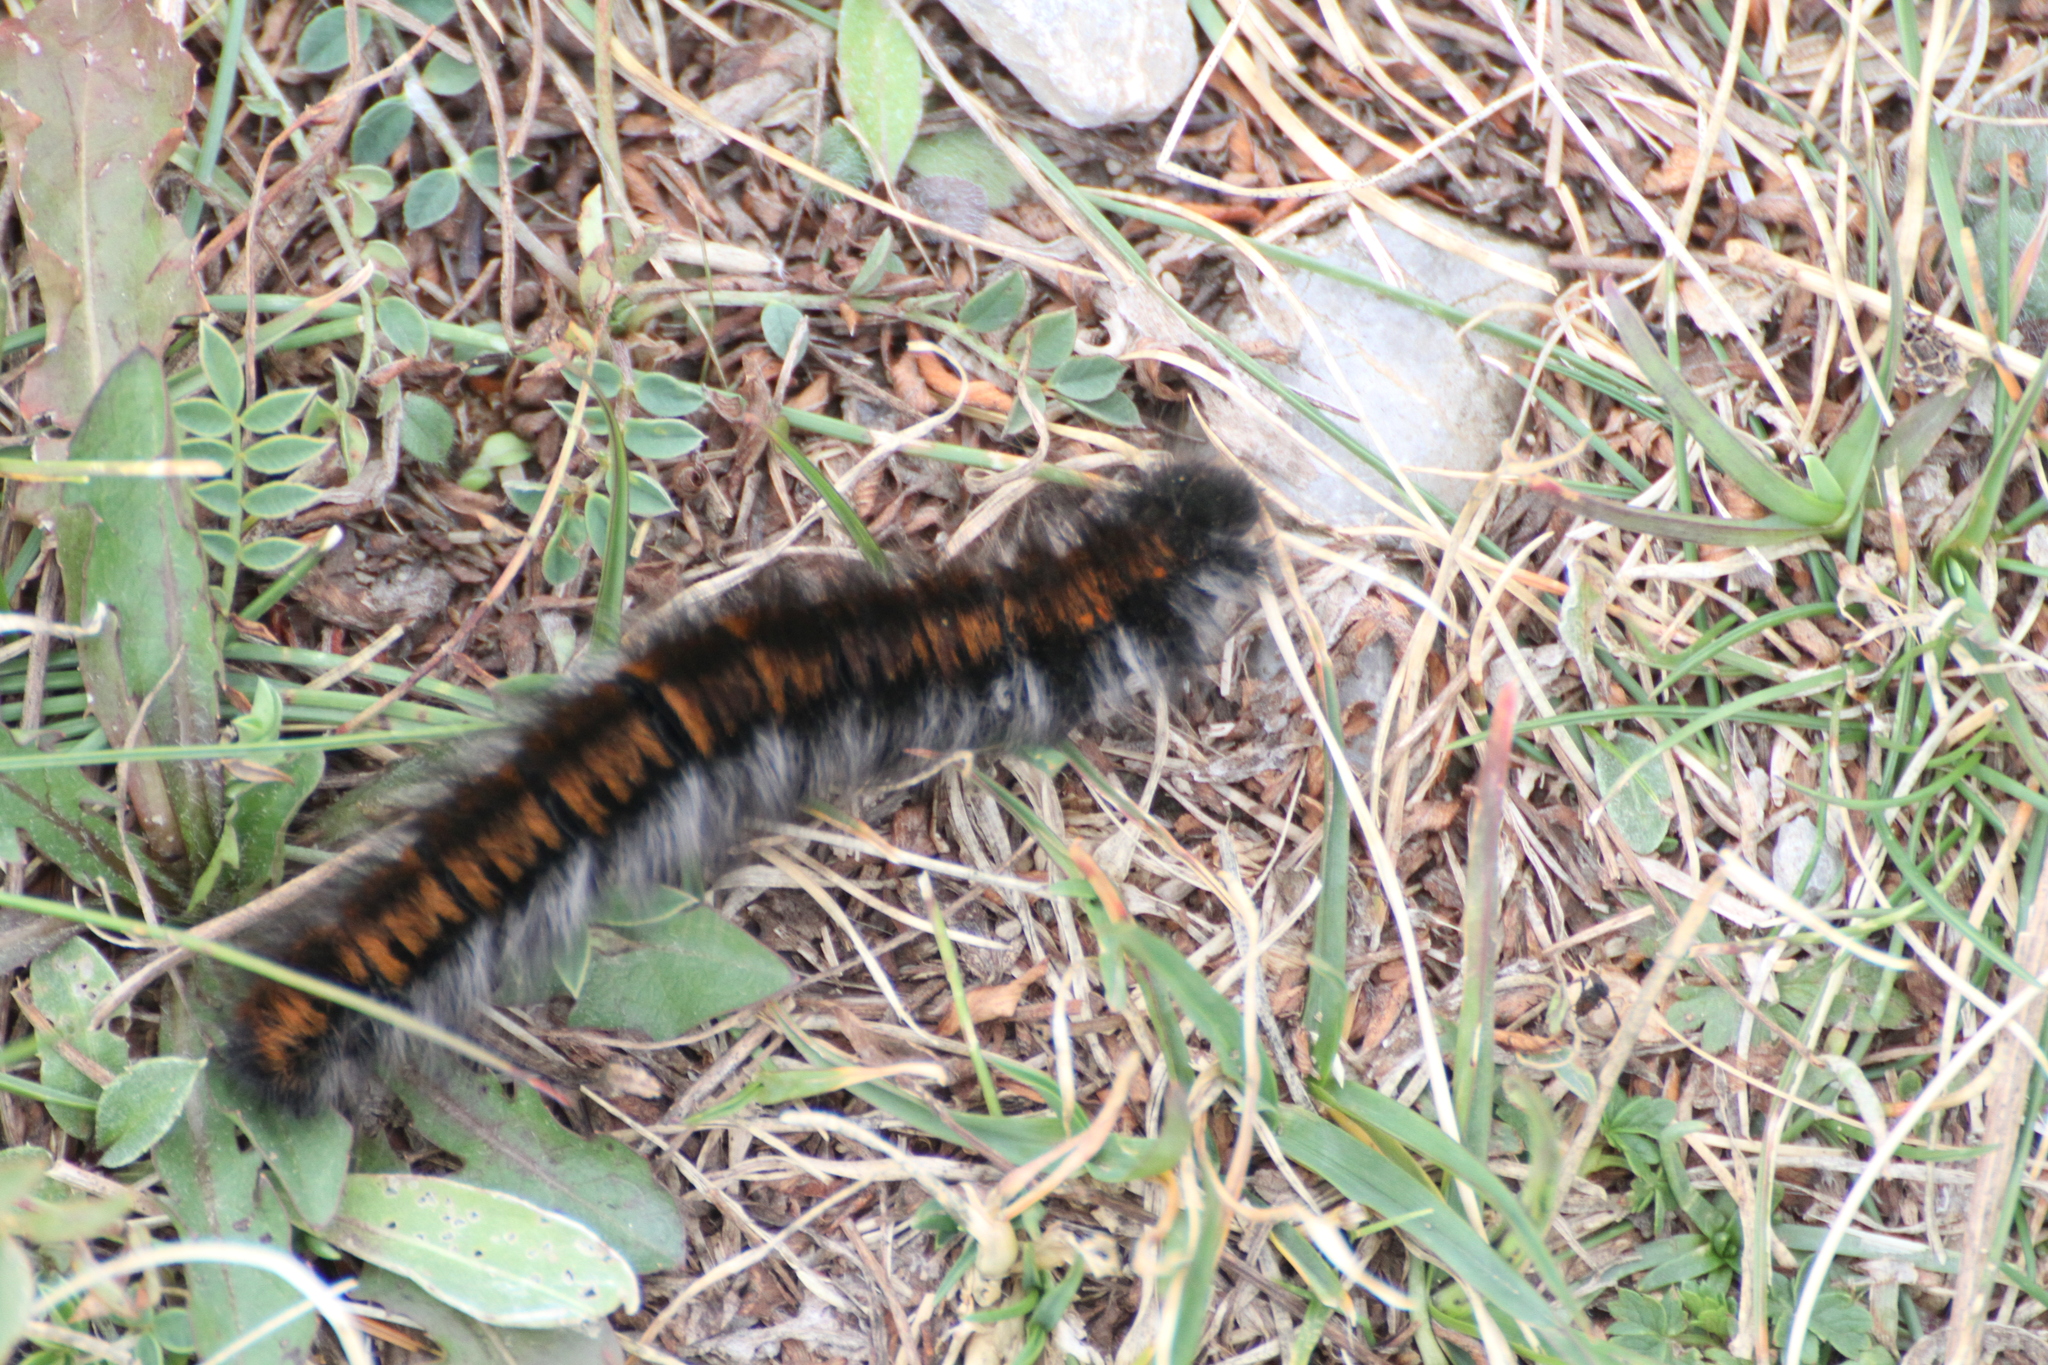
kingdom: Animalia
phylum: Arthropoda
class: Insecta
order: Lepidoptera
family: Lasiocampidae
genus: Macrothylacia
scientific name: Macrothylacia rubi
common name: Fox moth
